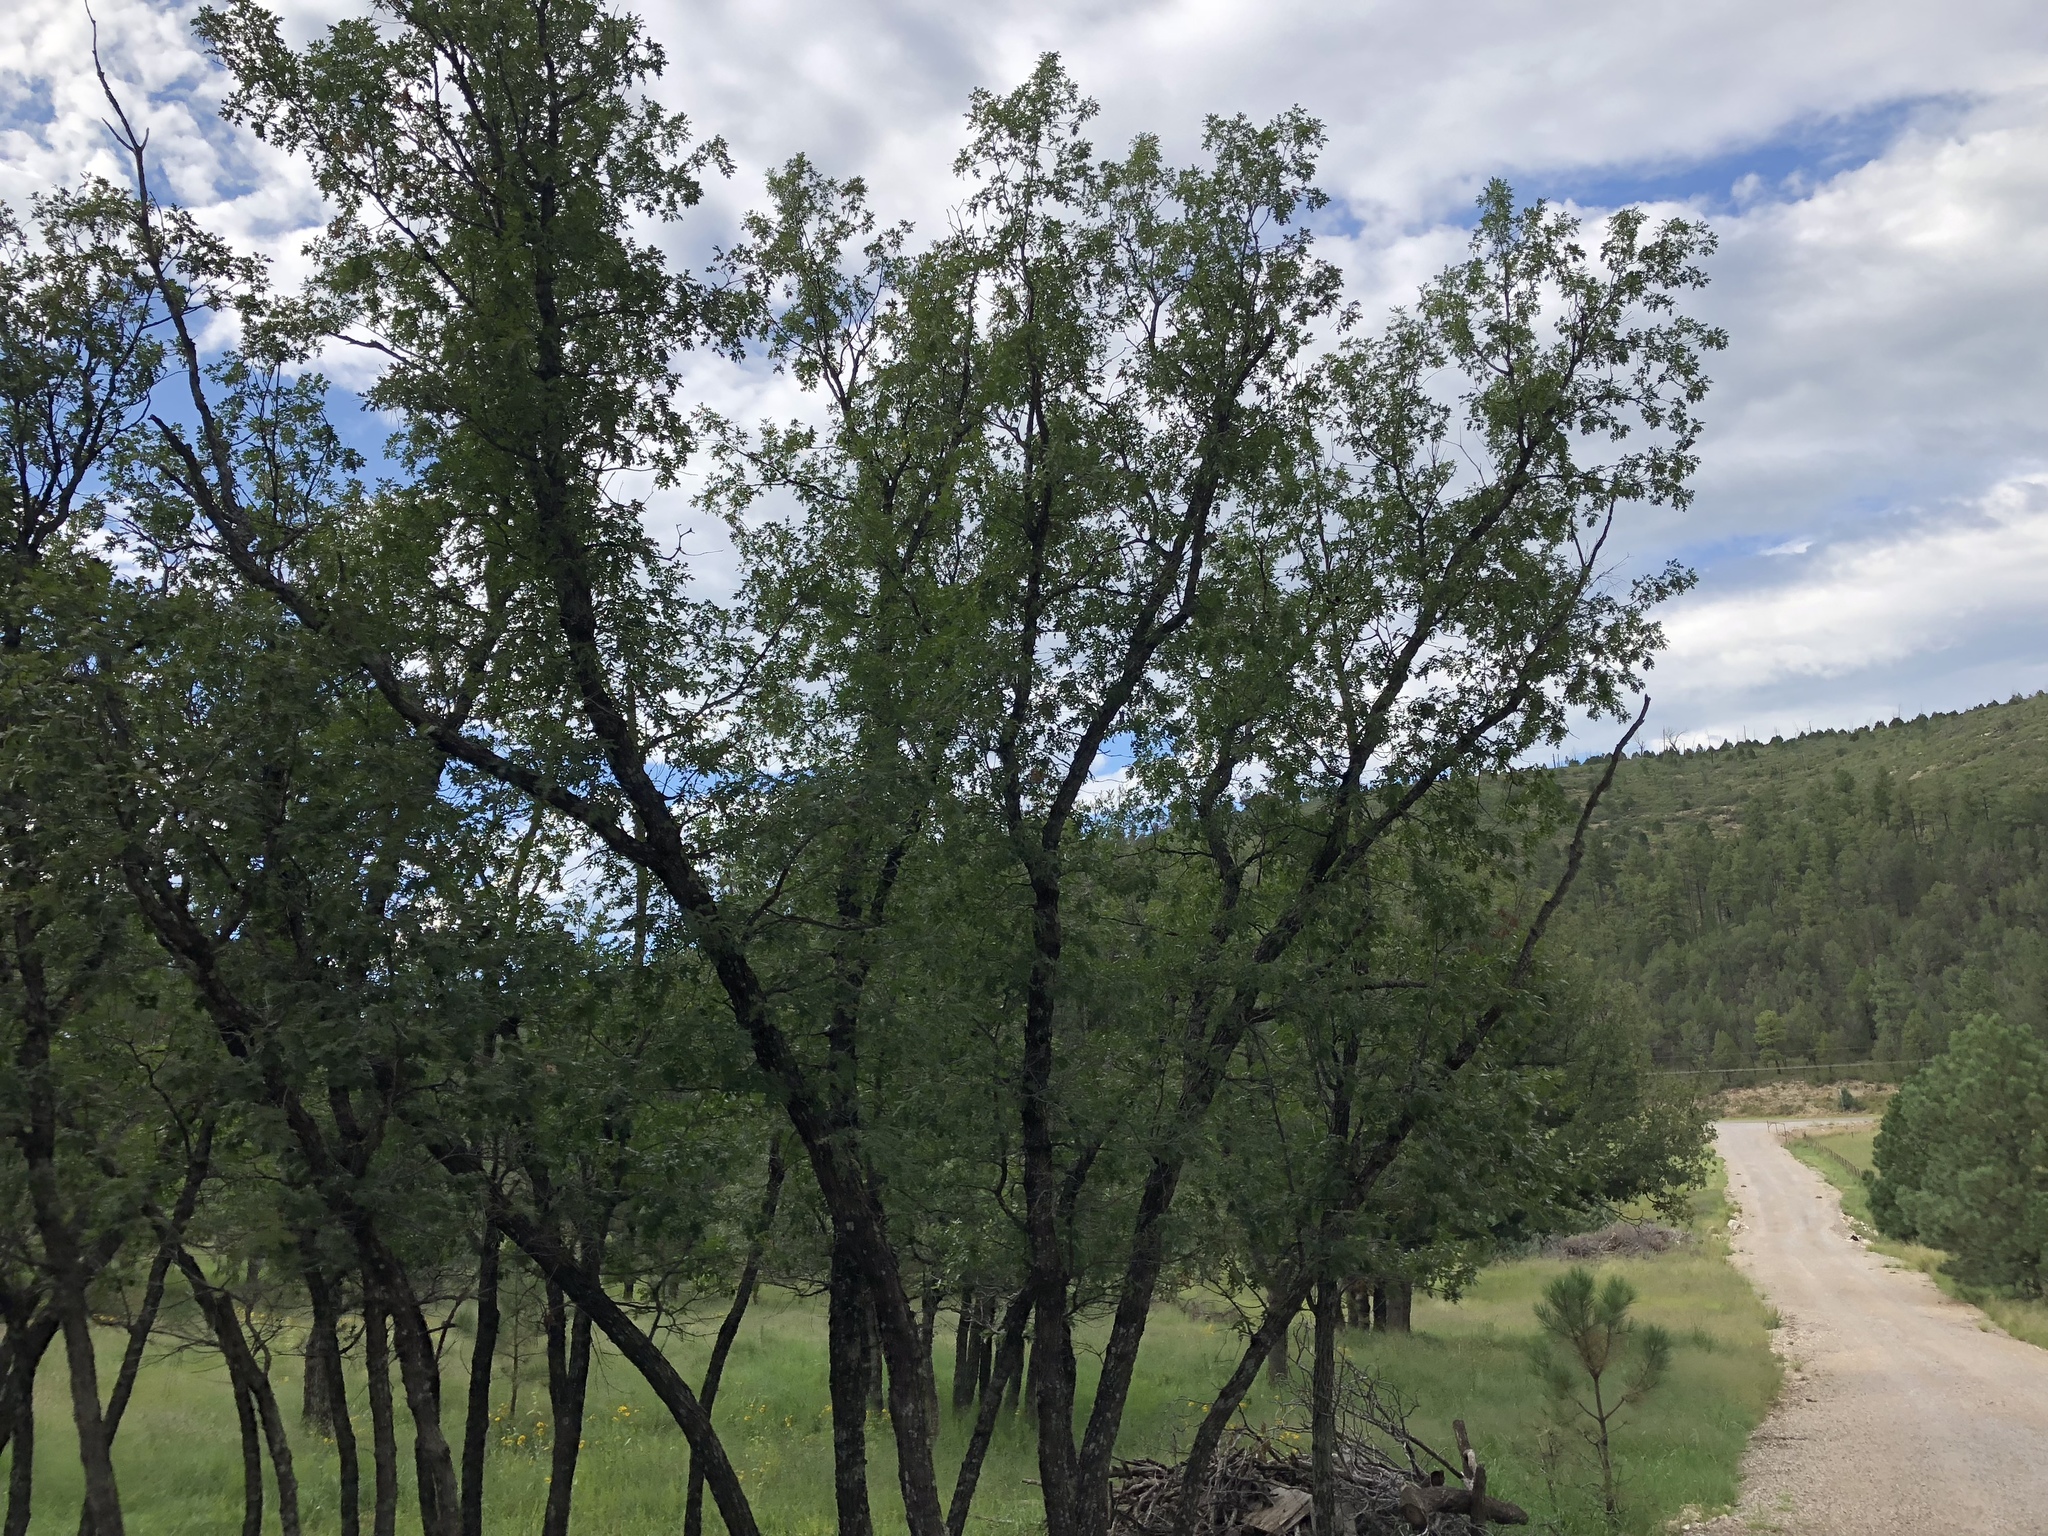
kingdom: Plantae
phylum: Tracheophyta
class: Magnoliopsida
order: Fagales
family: Fagaceae
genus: Quercus
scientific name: Quercus gambelii
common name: Gambel oak
